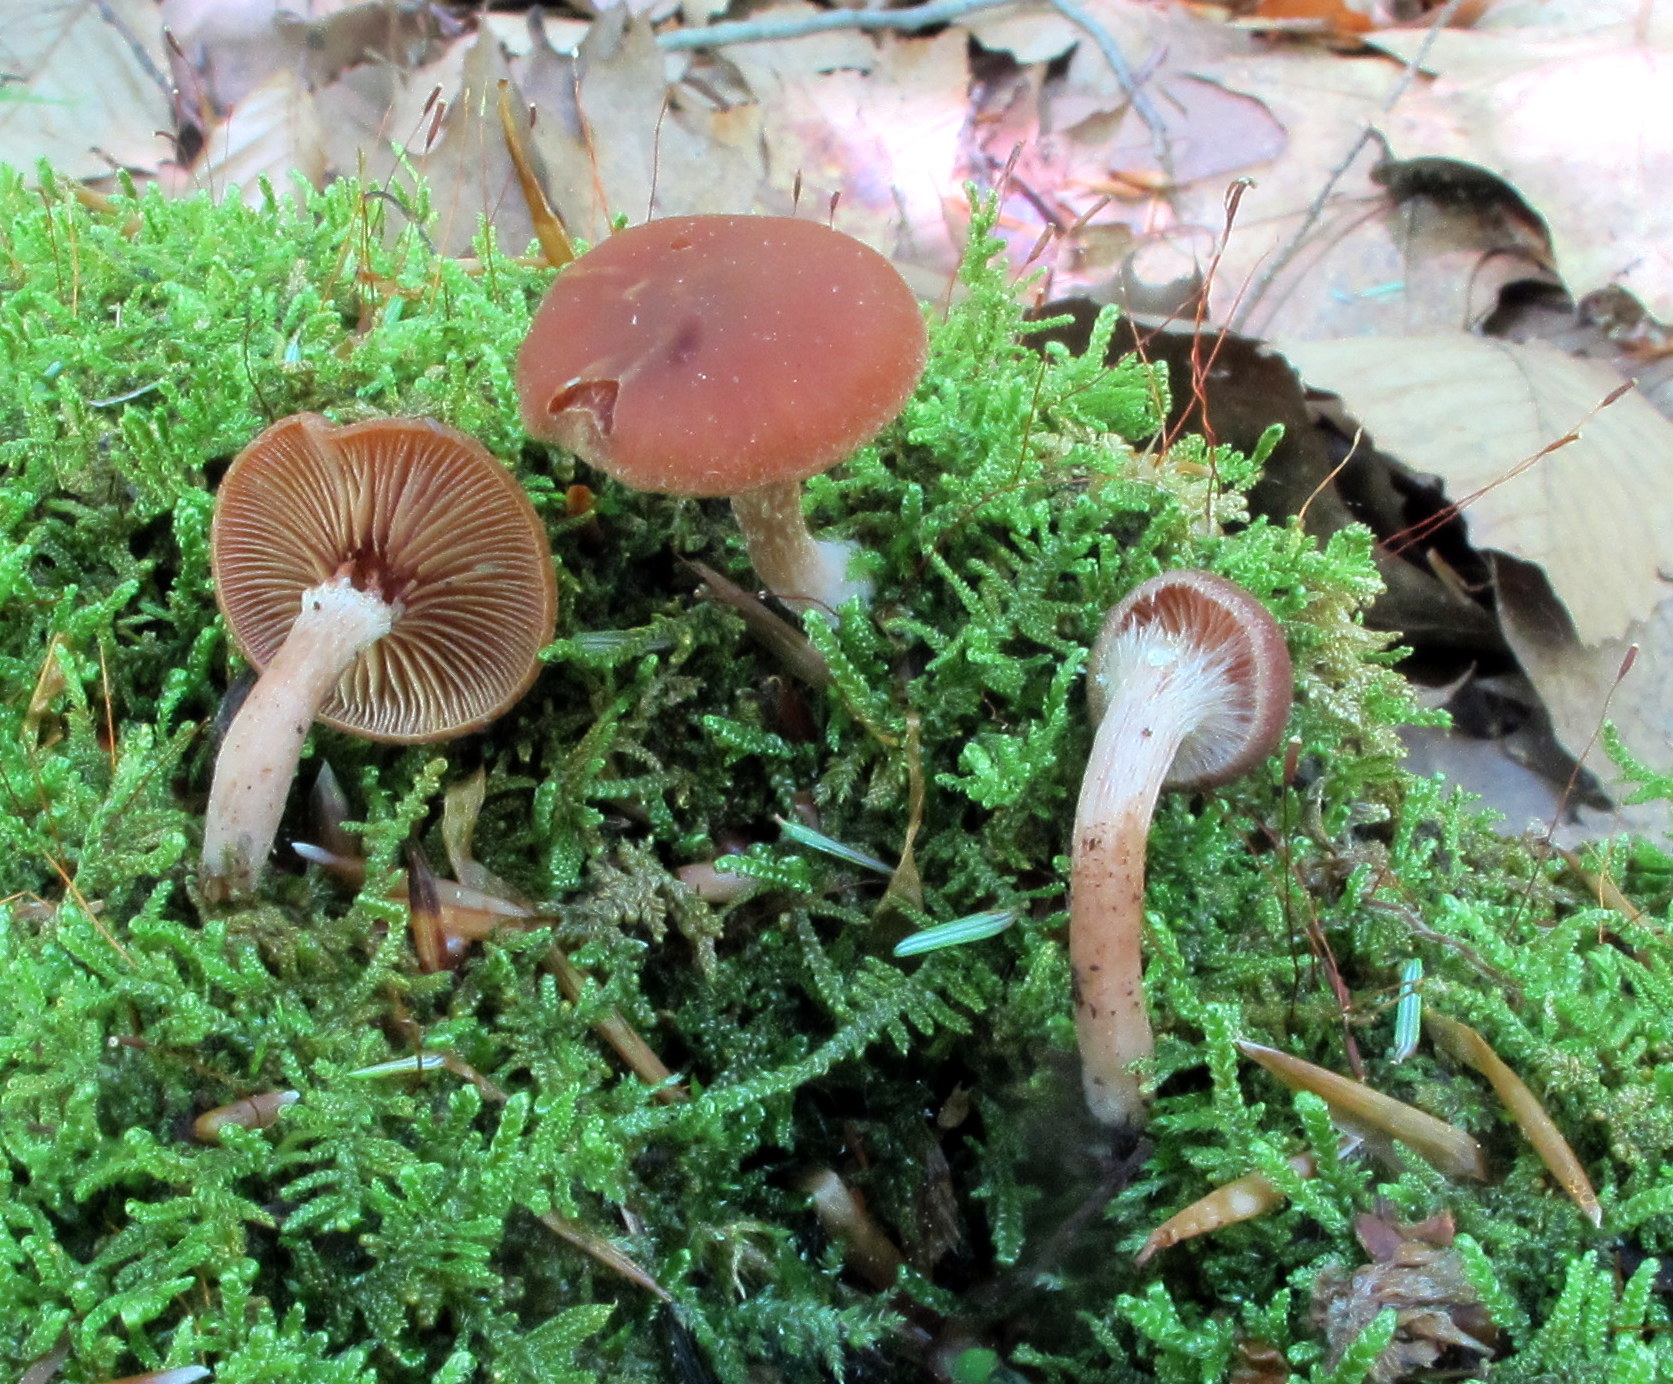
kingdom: Fungi
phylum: Basidiomycota
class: Agaricomycetes
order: Agaricales
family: Tubariaceae
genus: Tubaria
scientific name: Tubaria confragosa
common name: Ringed twiglet
